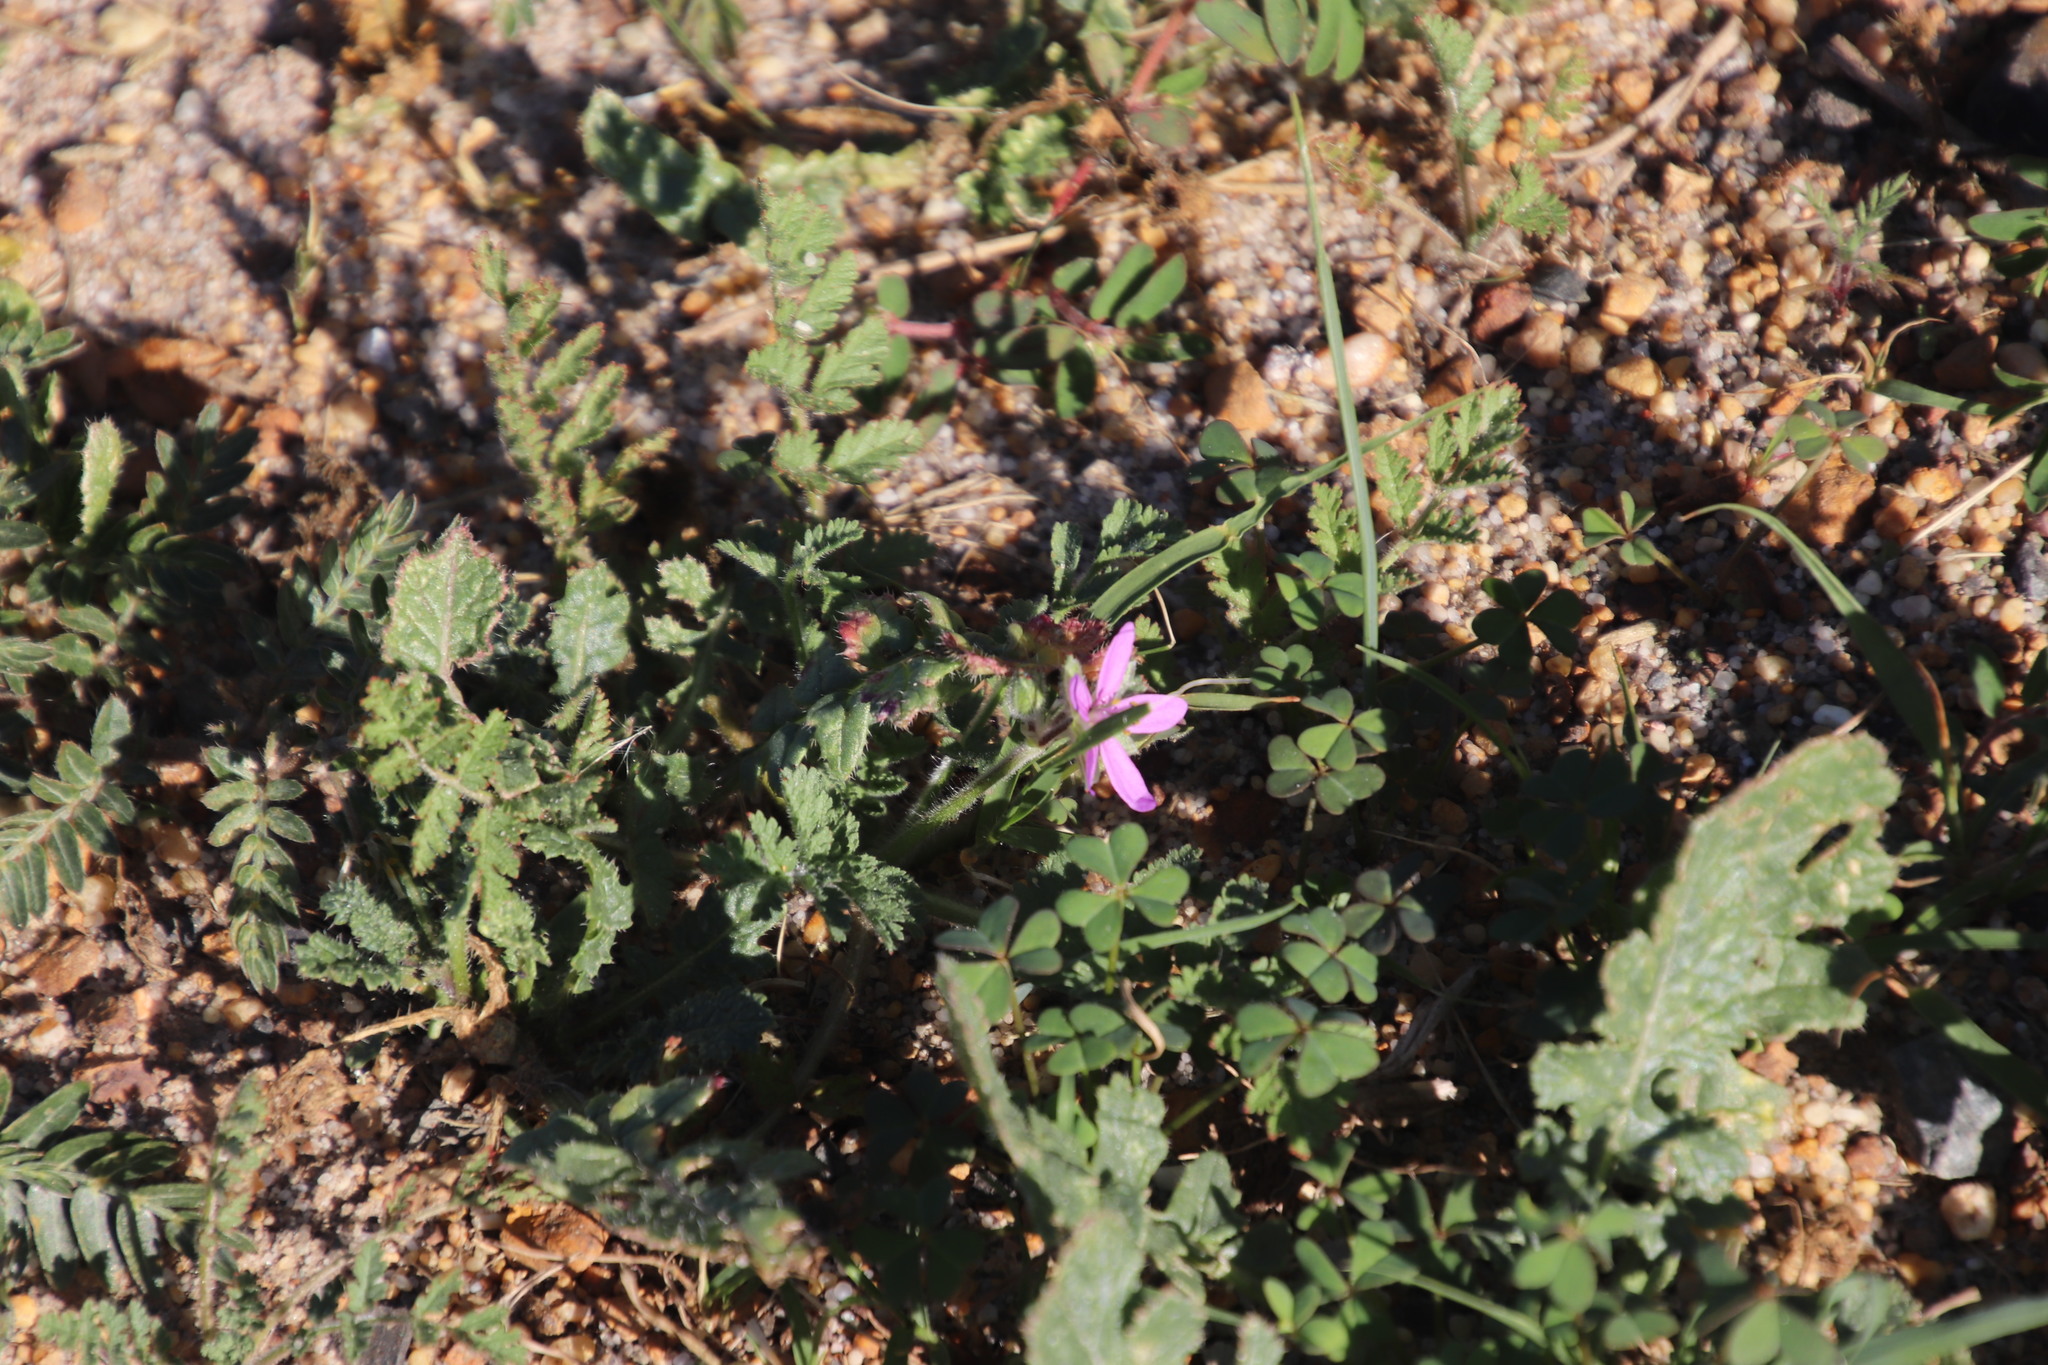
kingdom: Plantae
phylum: Tracheophyta
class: Magnoliopsida
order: Geraniales
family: Geraniaceae
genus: Erodium
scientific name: Erodium moschatum
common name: Musk stork's-bill
